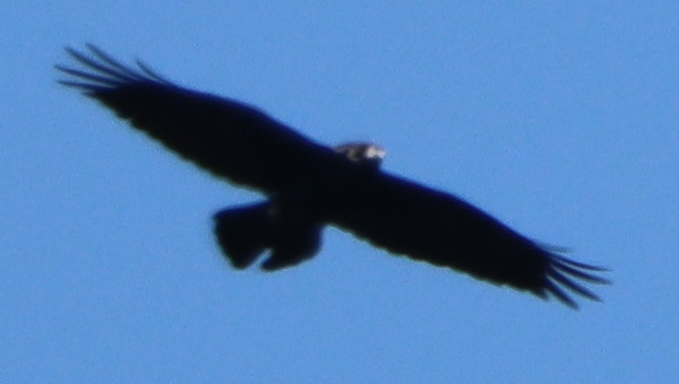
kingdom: Animalia
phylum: Chordata
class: Aves
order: Passeriformes
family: Corvidae
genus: Corvus
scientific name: Corvus corax
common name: Common raven
